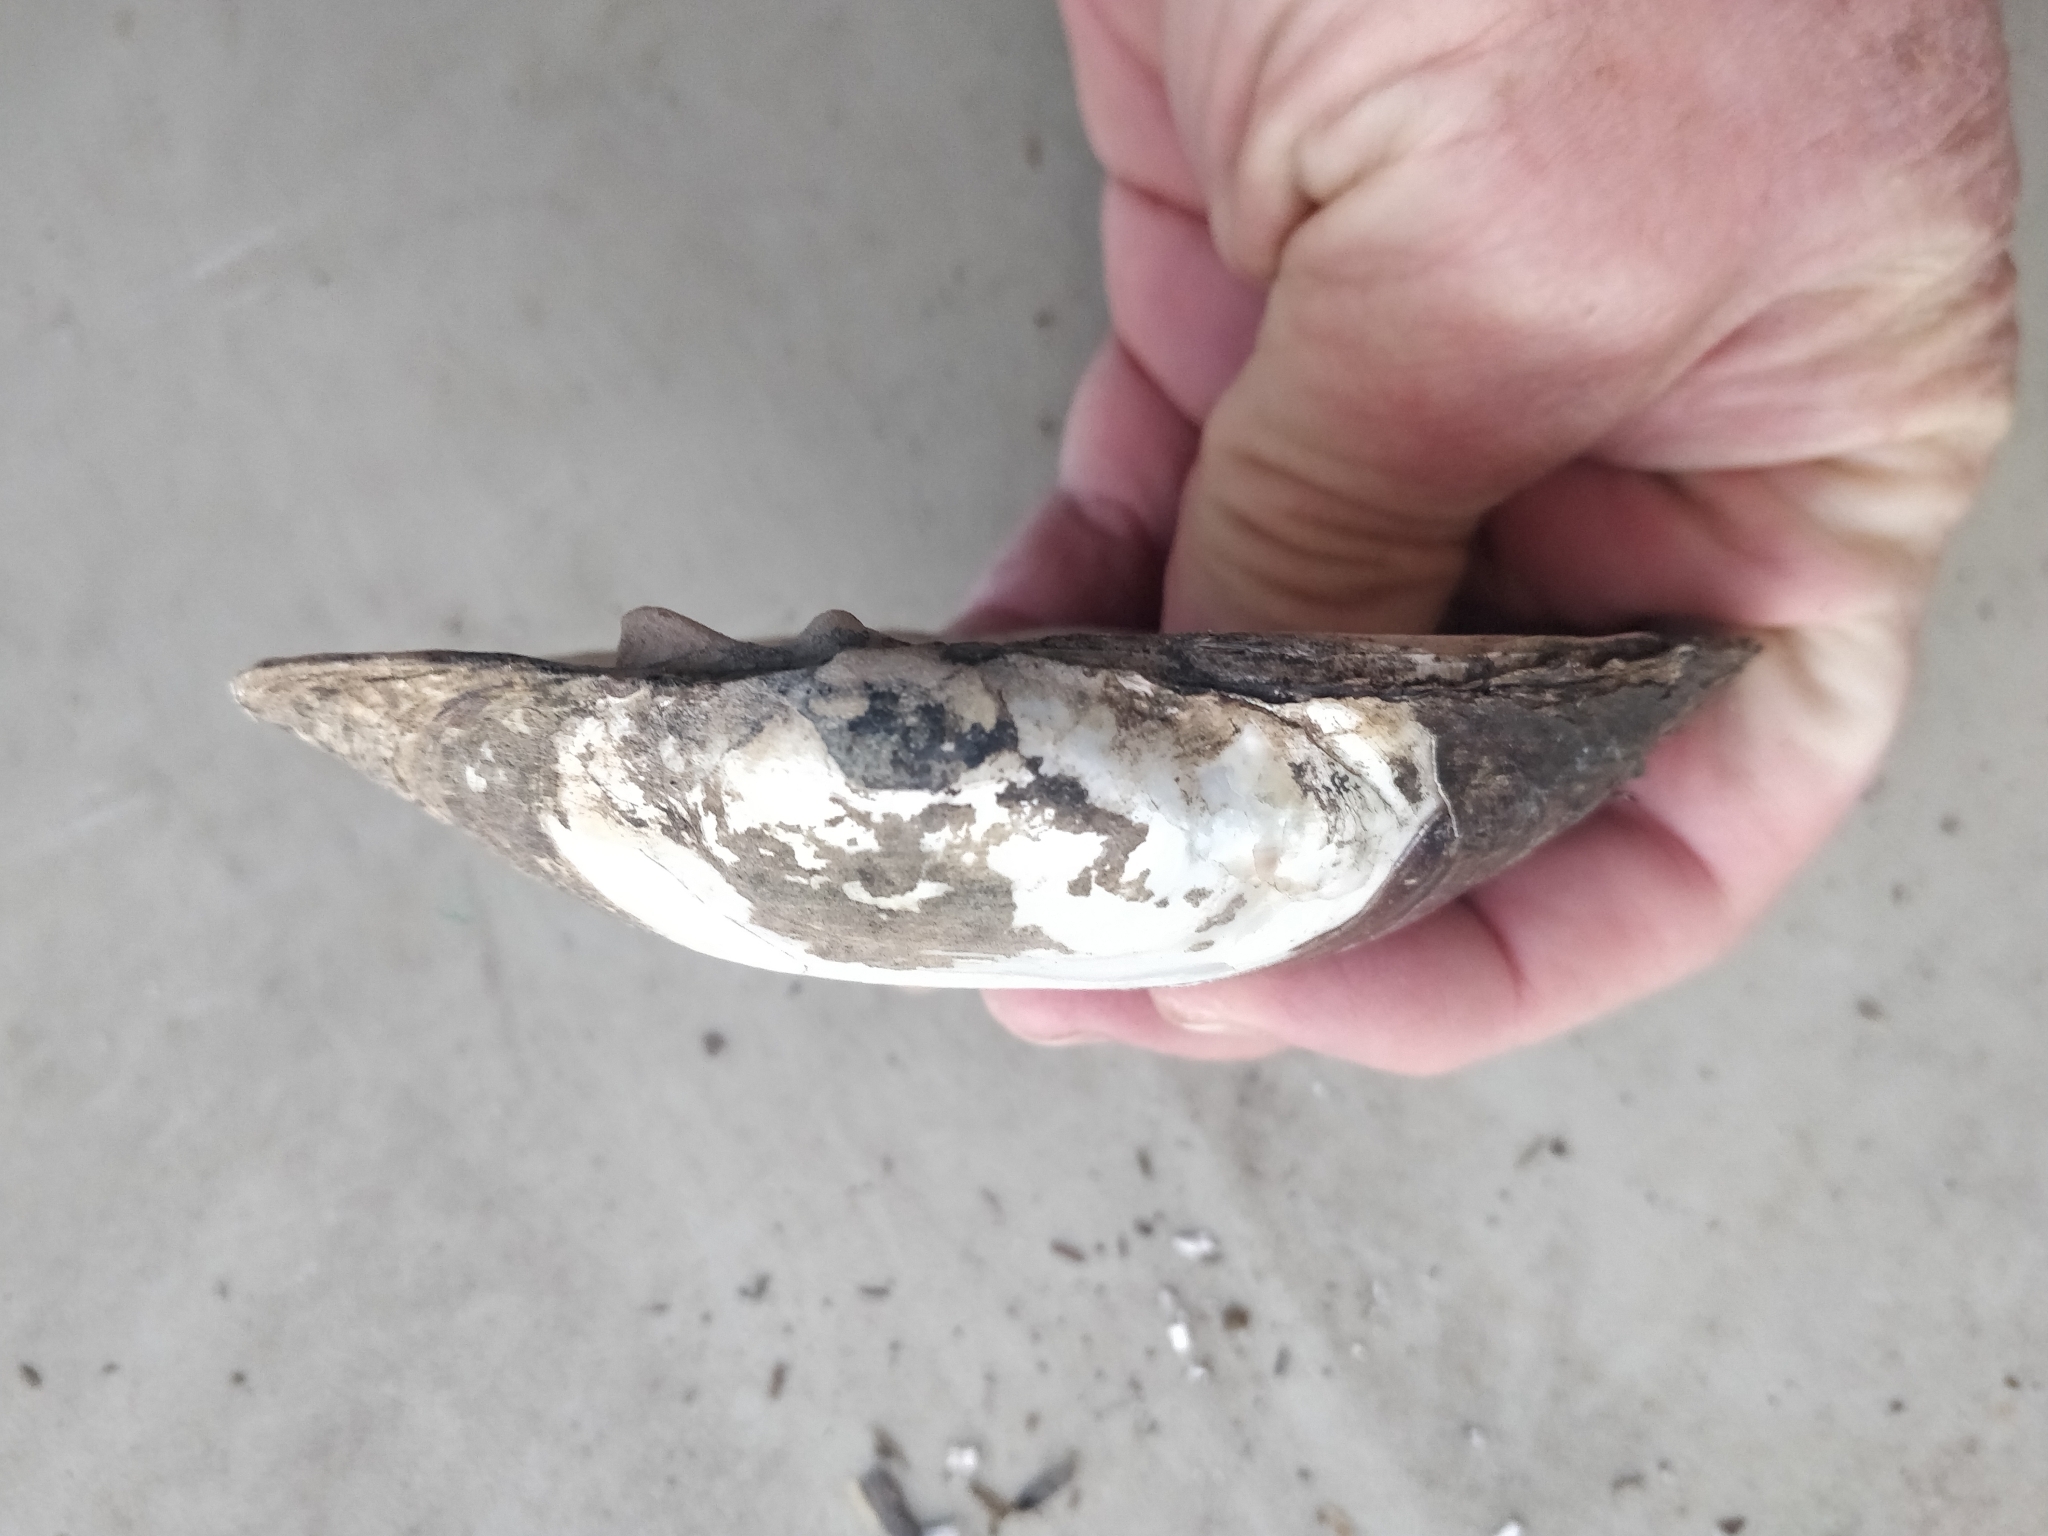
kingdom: Animalia
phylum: Mollusca
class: Bivalvia
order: Unionida
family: Unionidae
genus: Lampsilis
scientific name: Lampsilis cardium
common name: Plain pocketbook
